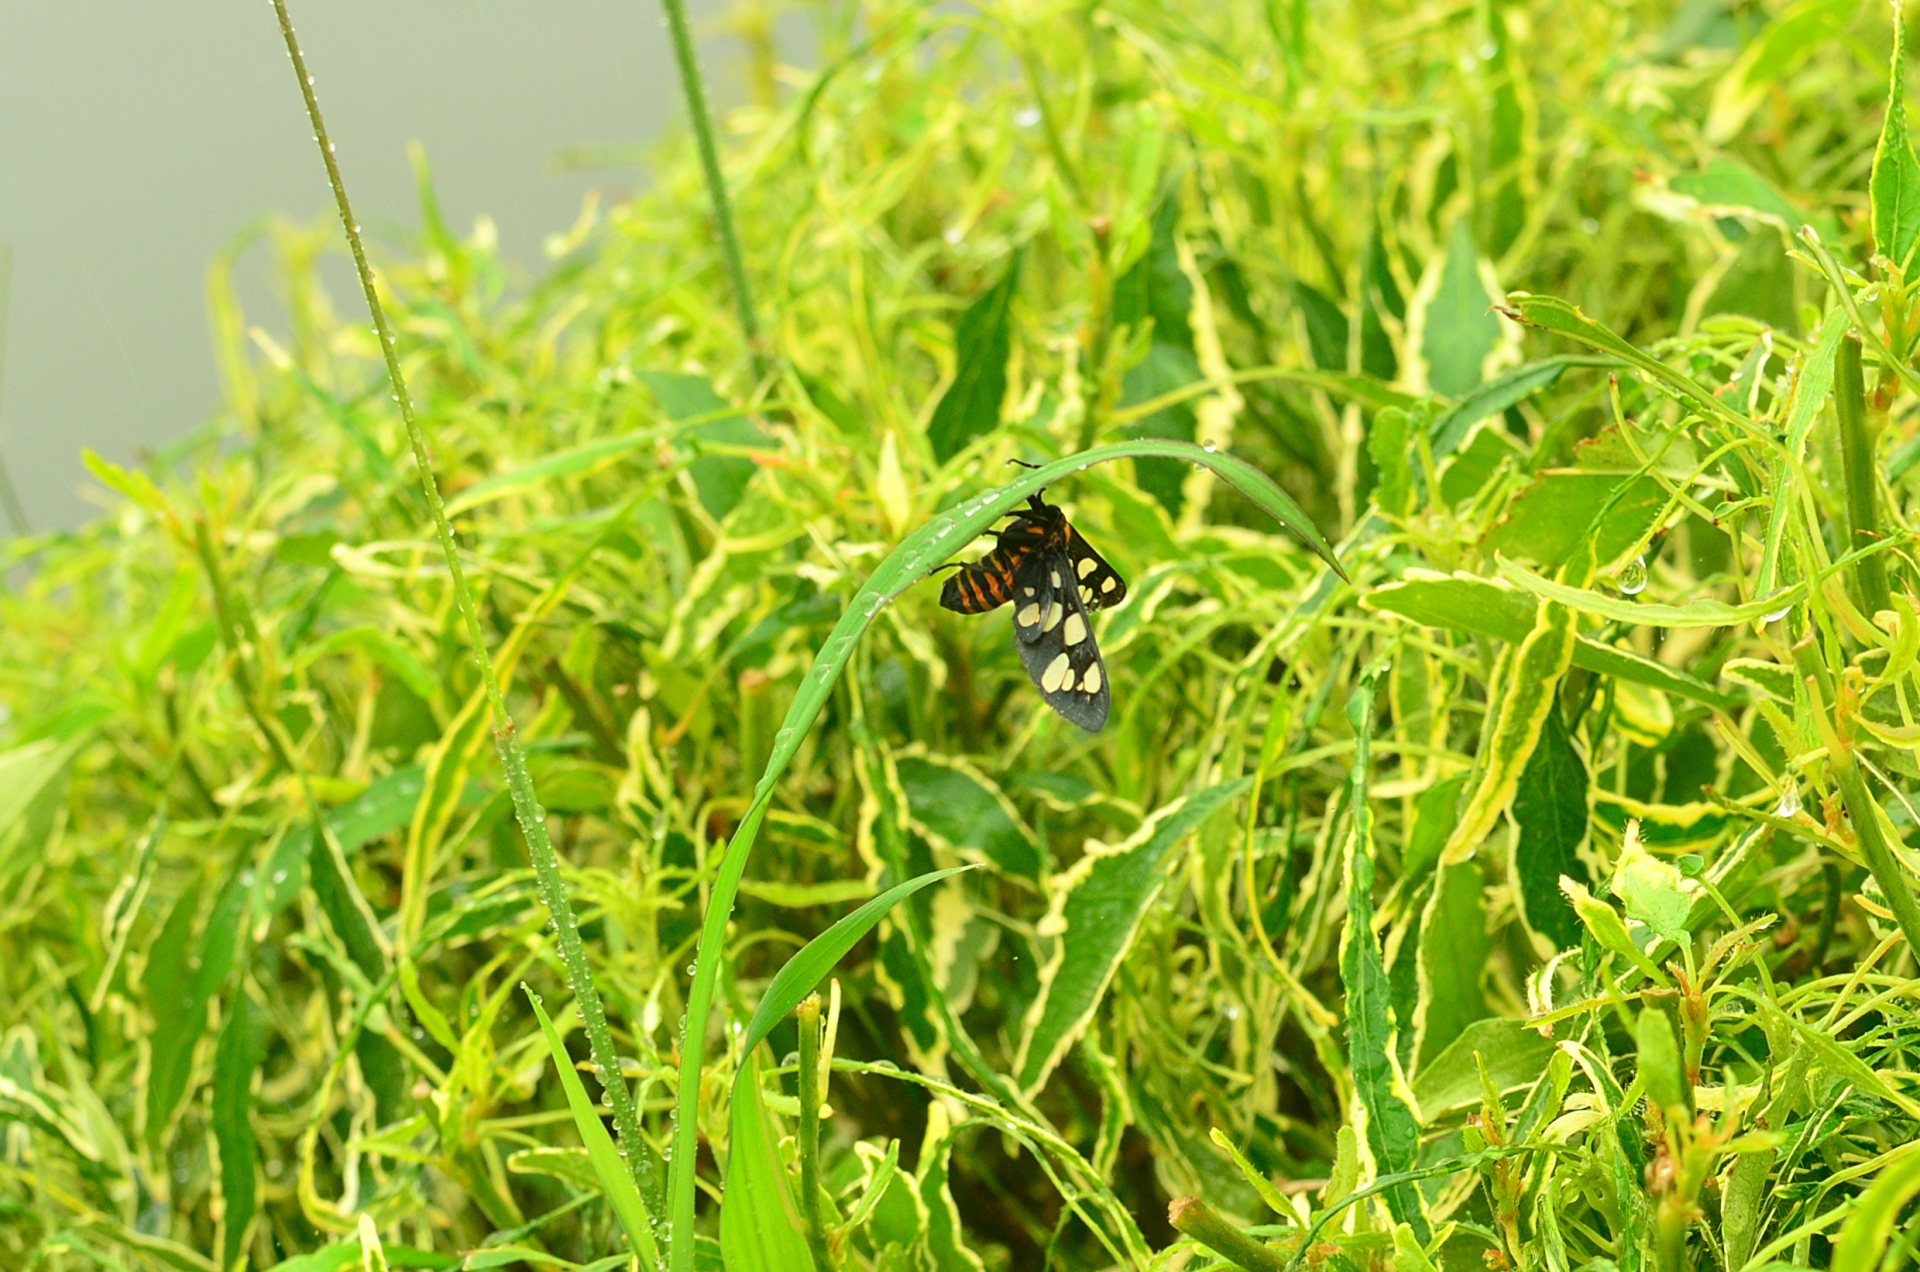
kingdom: Animalia
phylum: Arthropoda
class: Insecta
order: Lepidoptera
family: Erebidae
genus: Amata
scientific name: Amata passalis
